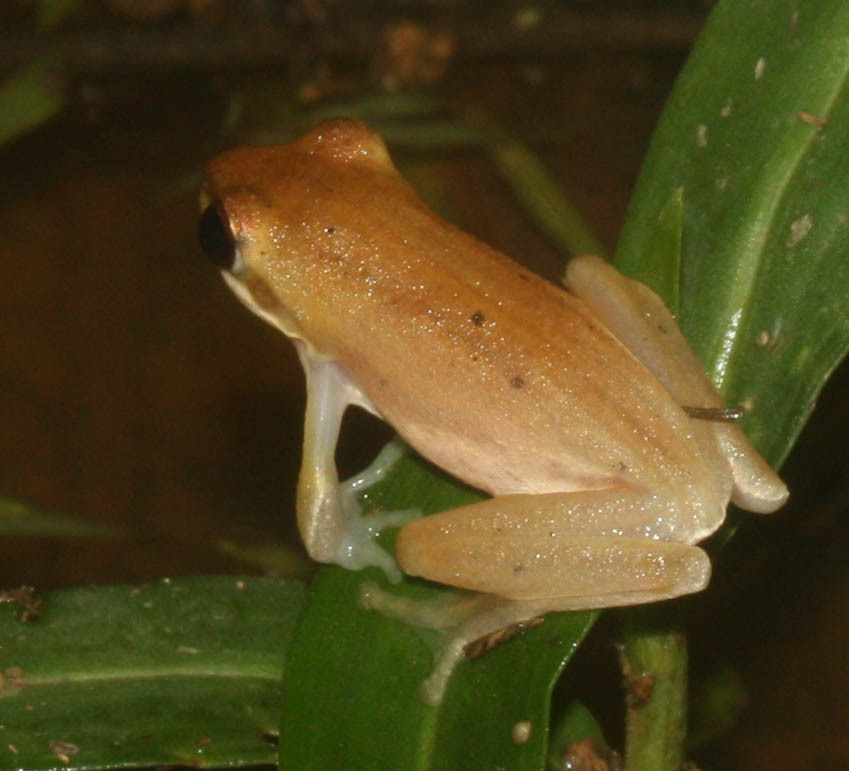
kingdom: Animalia
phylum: Chordata
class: Amphibia
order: Anura
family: Rhacophoridae
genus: Chiromantis
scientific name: Chiromantis doriae
